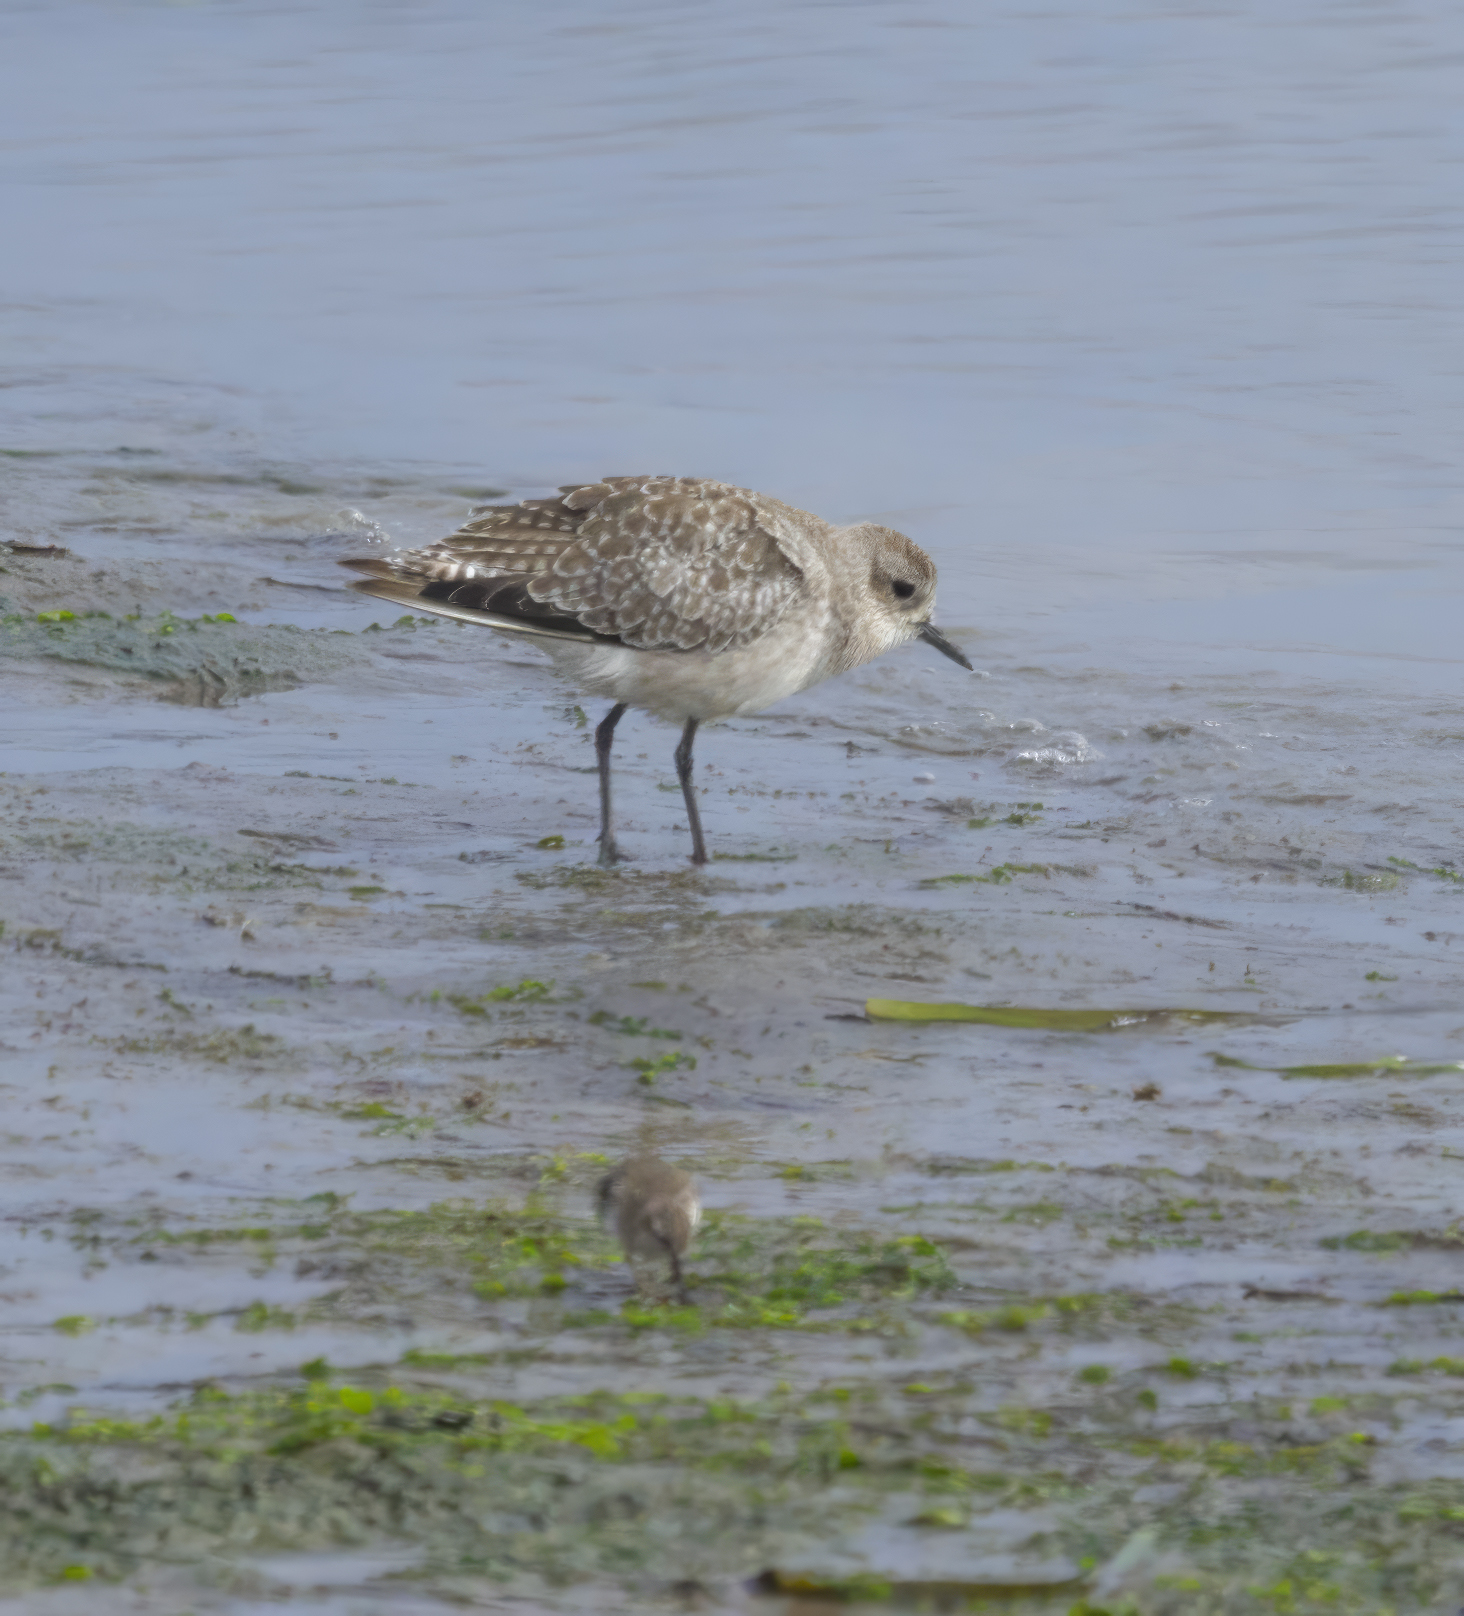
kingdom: Animalia
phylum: Chordata
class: Aves
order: Charadriiformes
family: Charadriidae
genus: Pluvialis
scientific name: Pluvialis squatarola
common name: Grey plover
